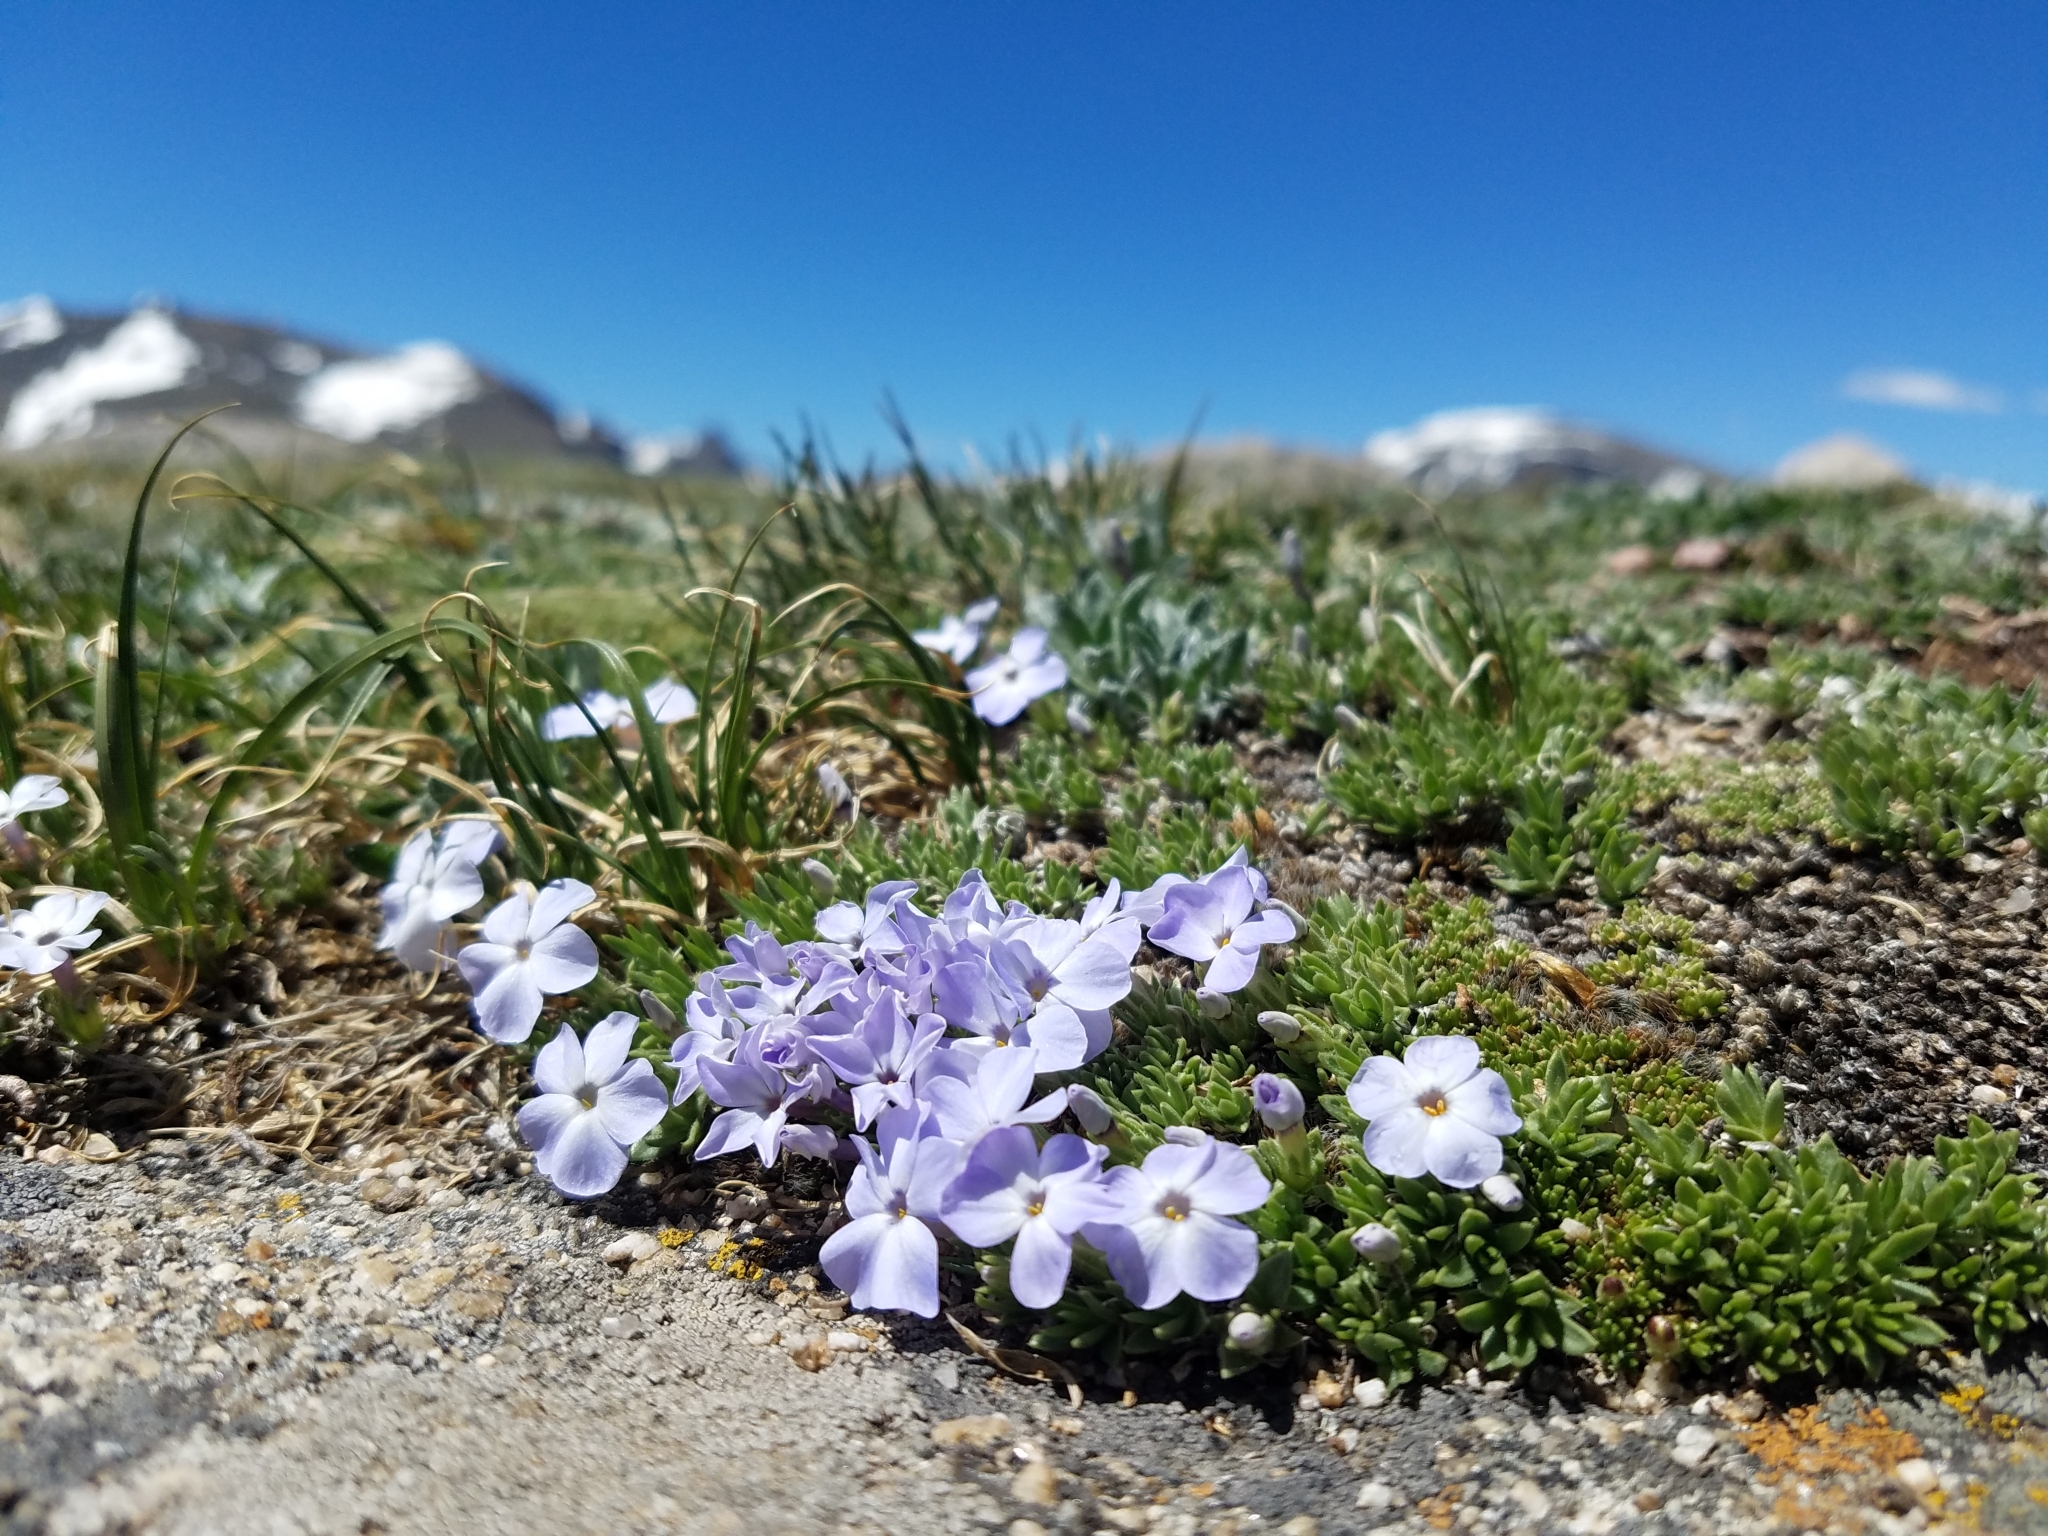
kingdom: Plantae
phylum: Tracheophyta
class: Magnoliopsida
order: Ericales
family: Polemoniaceae
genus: Phlox
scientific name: Phlox condensata
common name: Compact phlox
